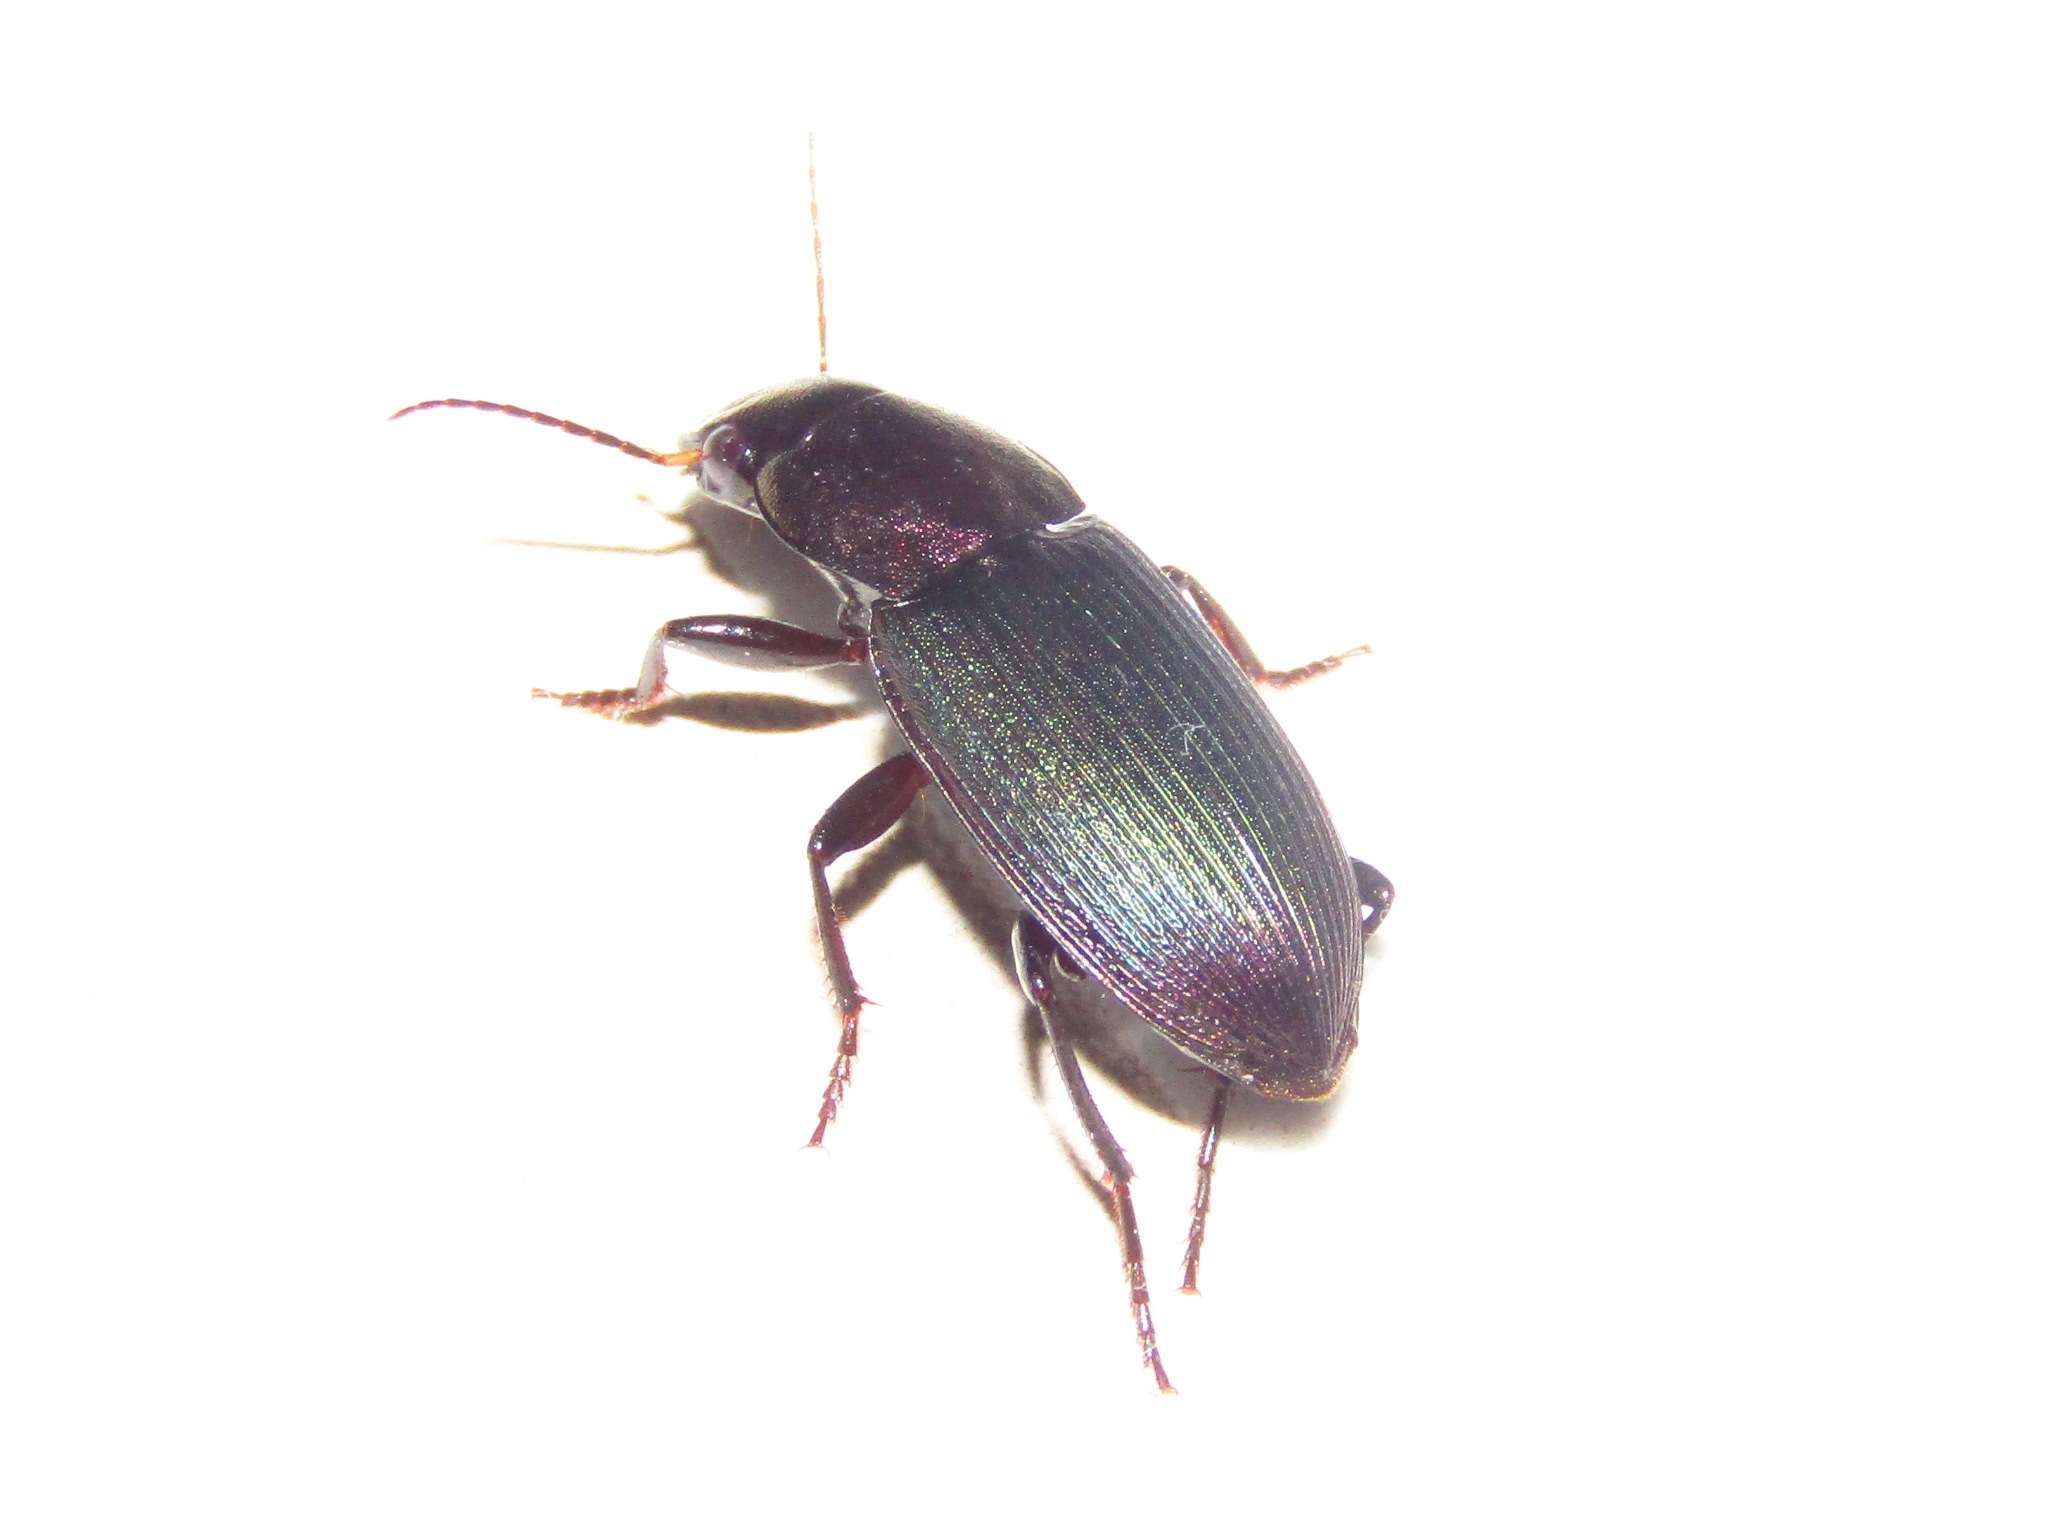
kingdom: Animalia
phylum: Arthropoda
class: Insecta
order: Coleoptera
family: Carabidae
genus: Neoaulacoryssus
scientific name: Neoaulacoryssus speciosus
